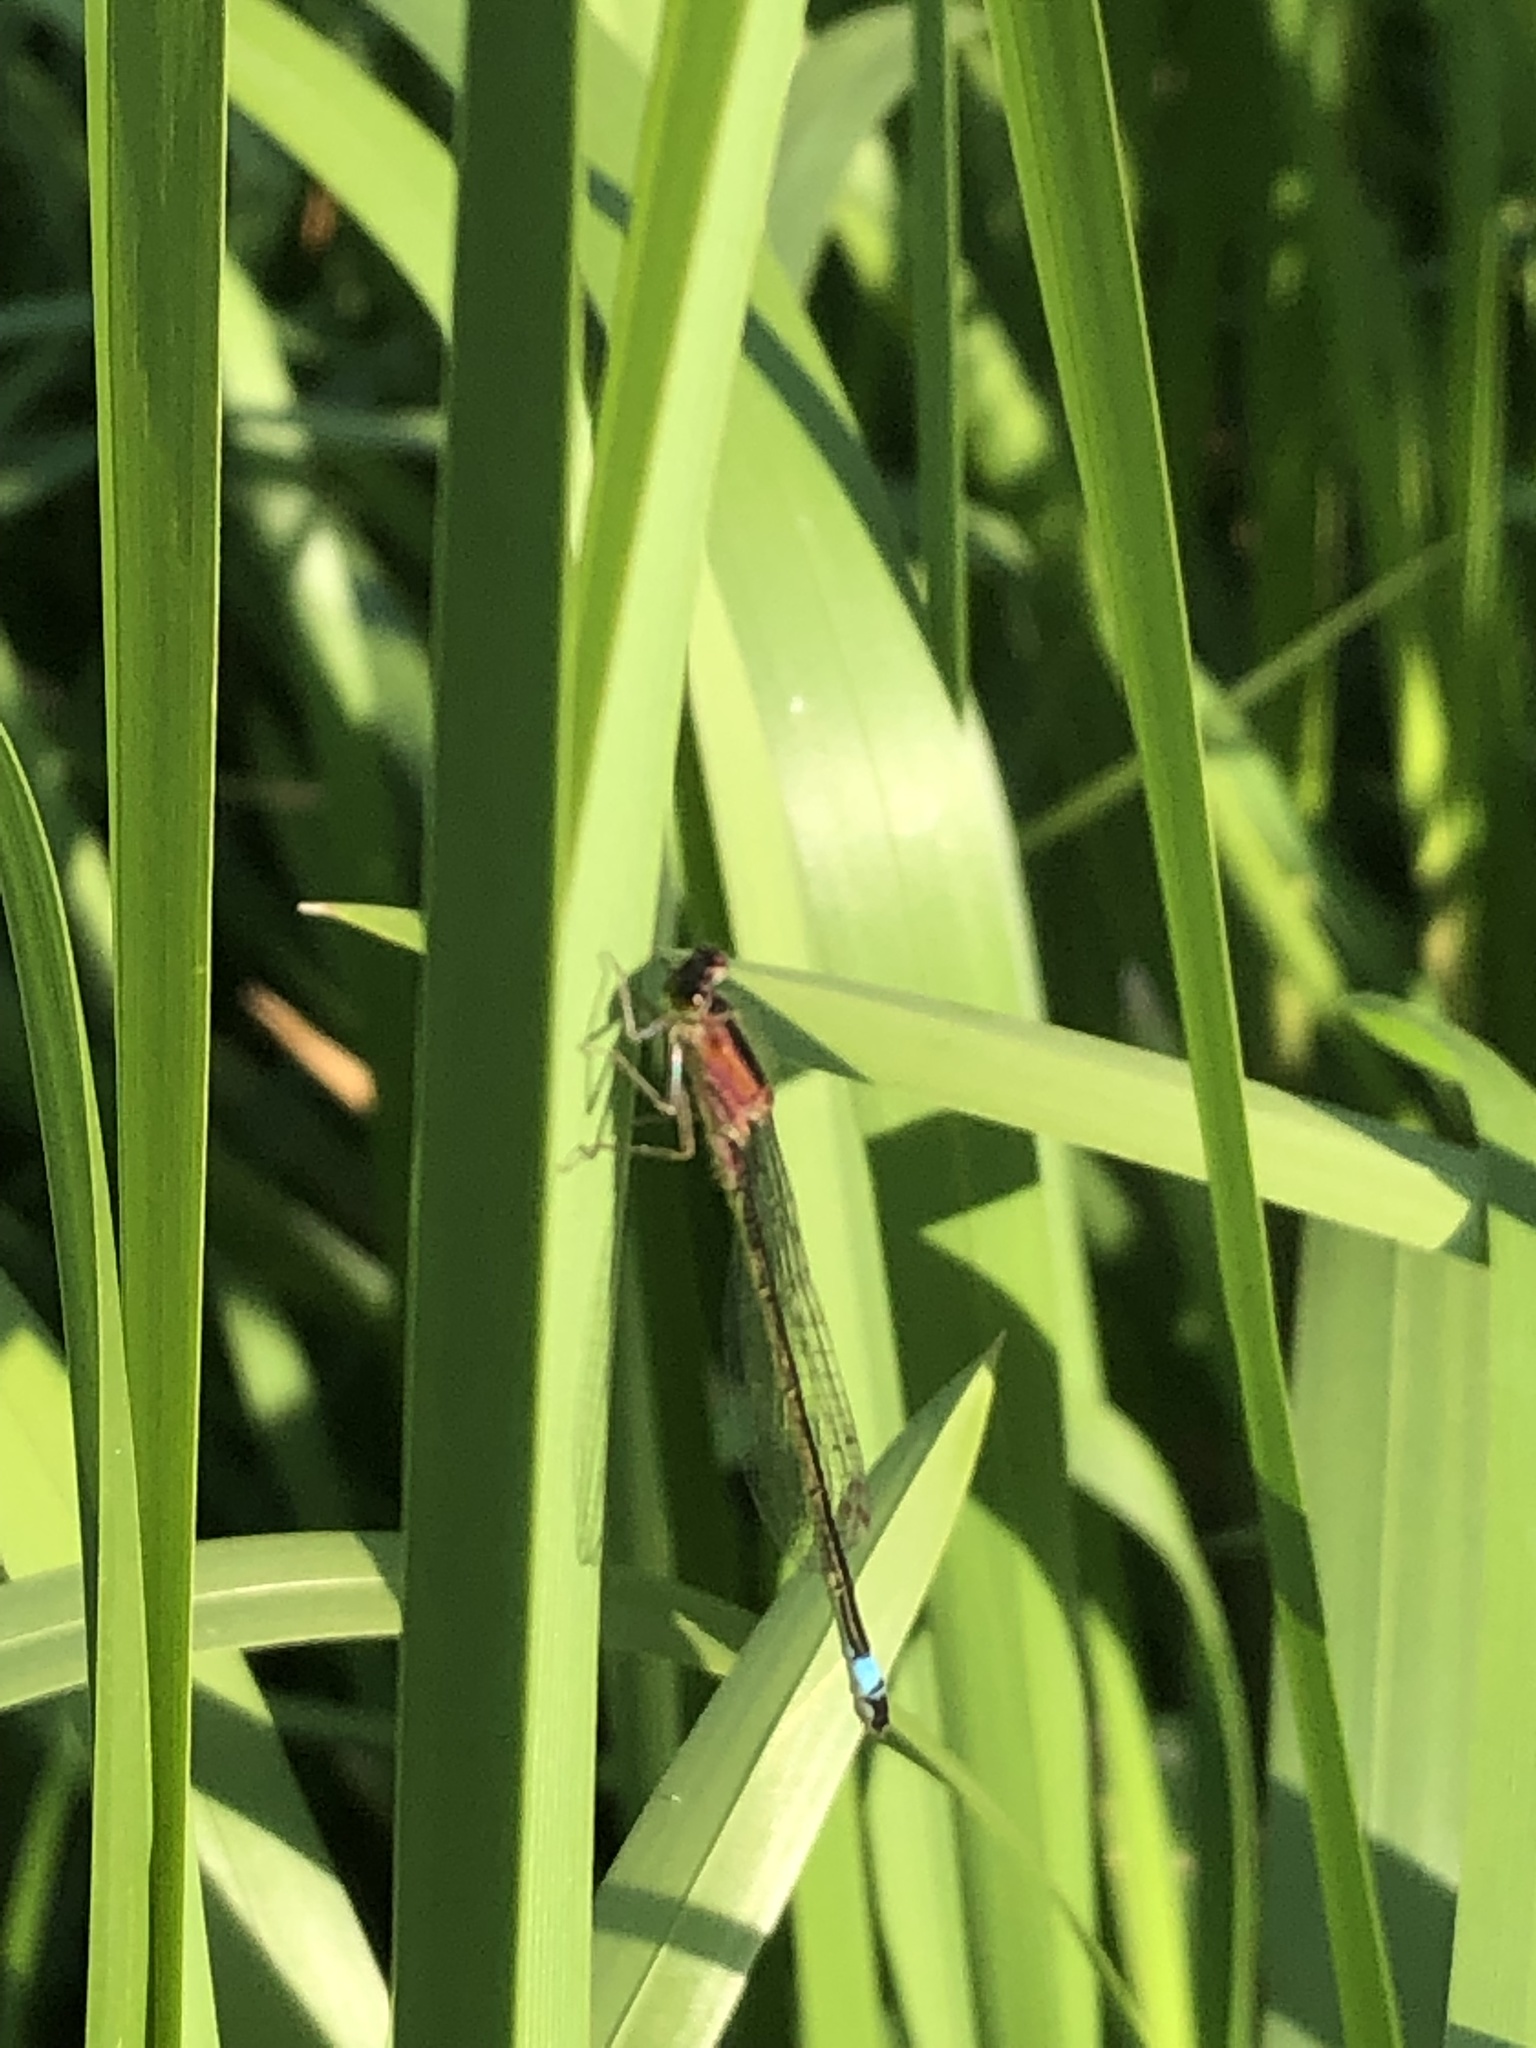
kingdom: Animalia
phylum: Arthropoda
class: Insecta
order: Odonata
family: Coenagrionidae
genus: Ischnura
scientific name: Ischnura elegans
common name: Blue-tailed damselfly
